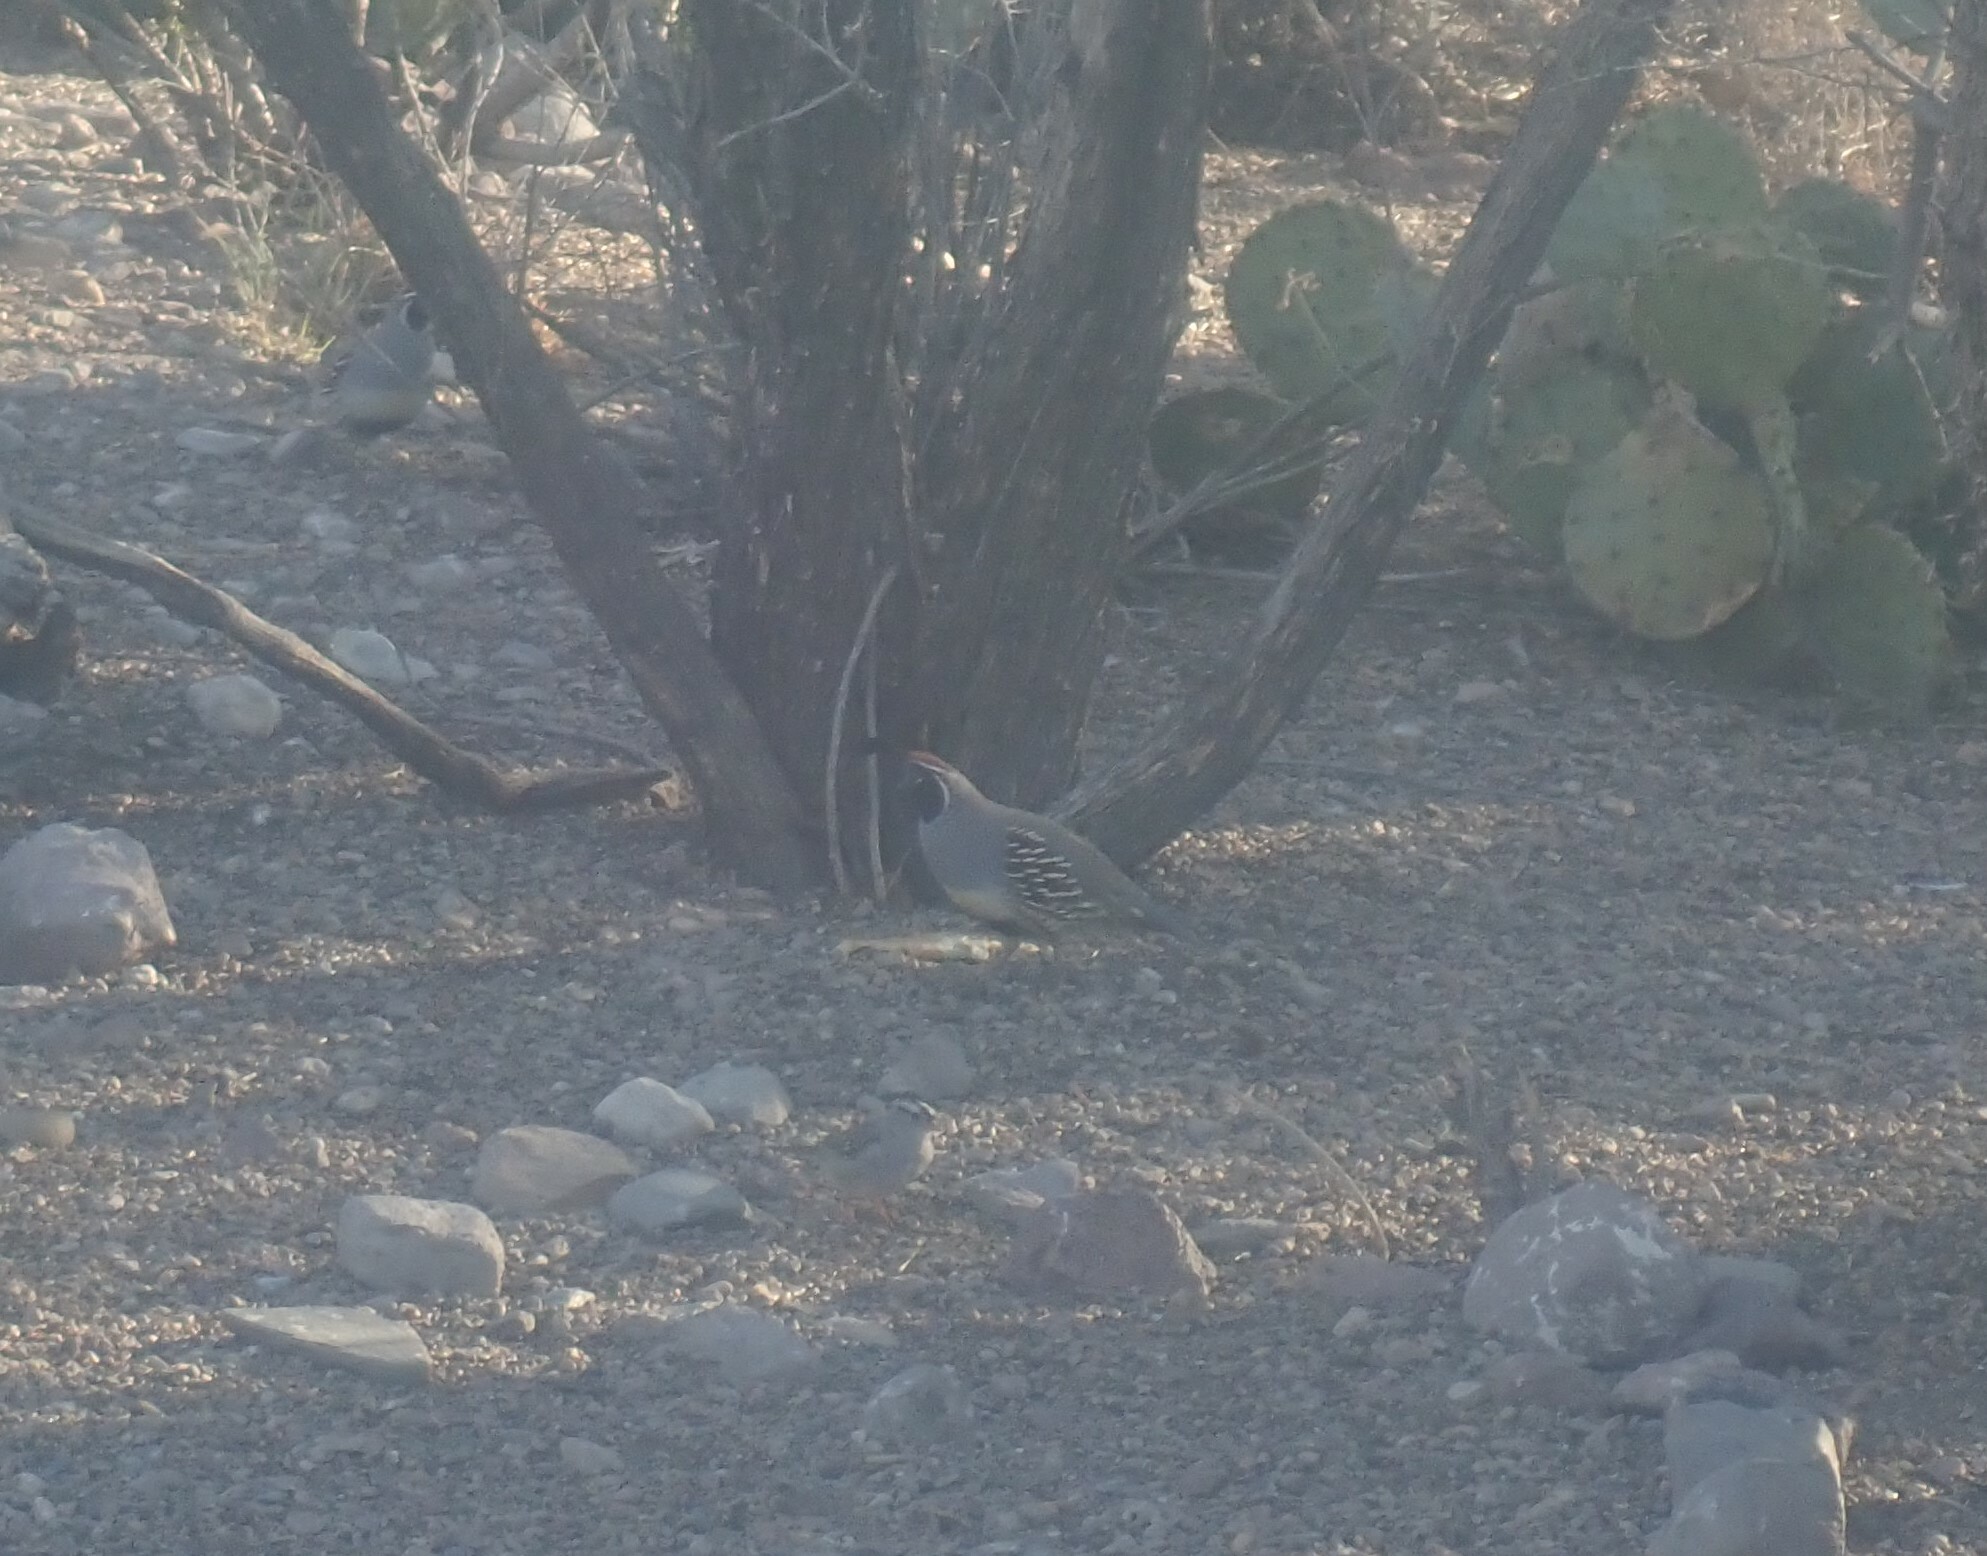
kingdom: Animalia
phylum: Chordata
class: Aves
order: Galliformes
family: Odontophoridae
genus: Callipepla
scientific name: Callipepla gambelii
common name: Gambel's quail
